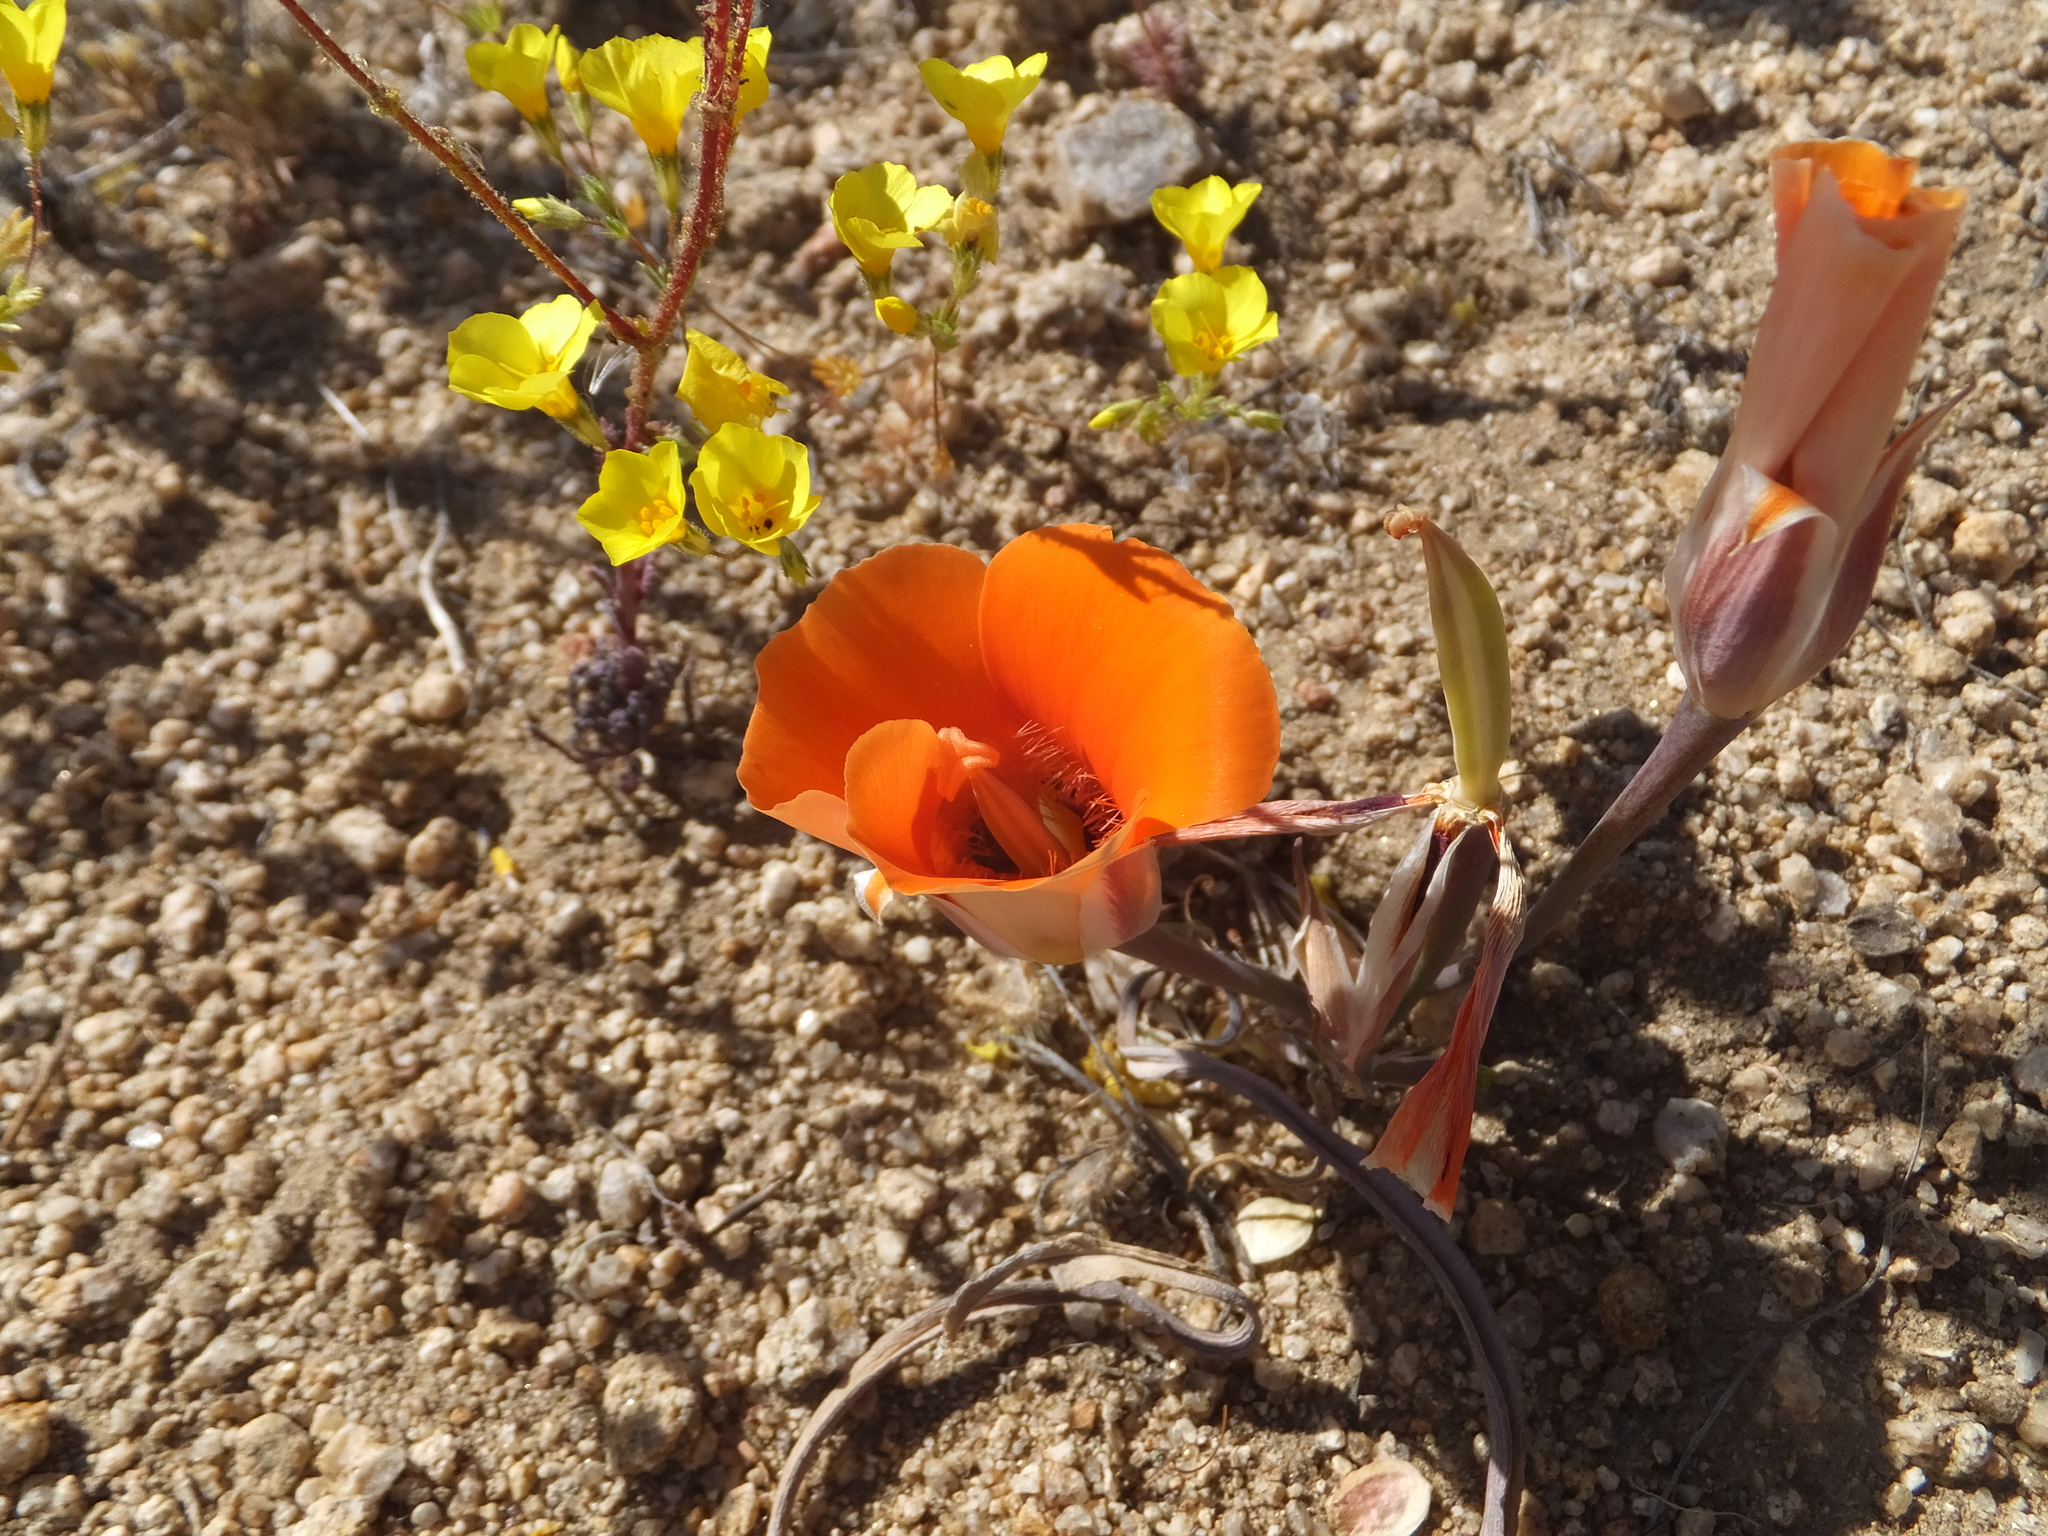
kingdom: Plantae
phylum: Tracheophyta
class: Liliopsida
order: Liliales
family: Liliaceae
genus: Calochortus
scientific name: Calochortus kennedyi
